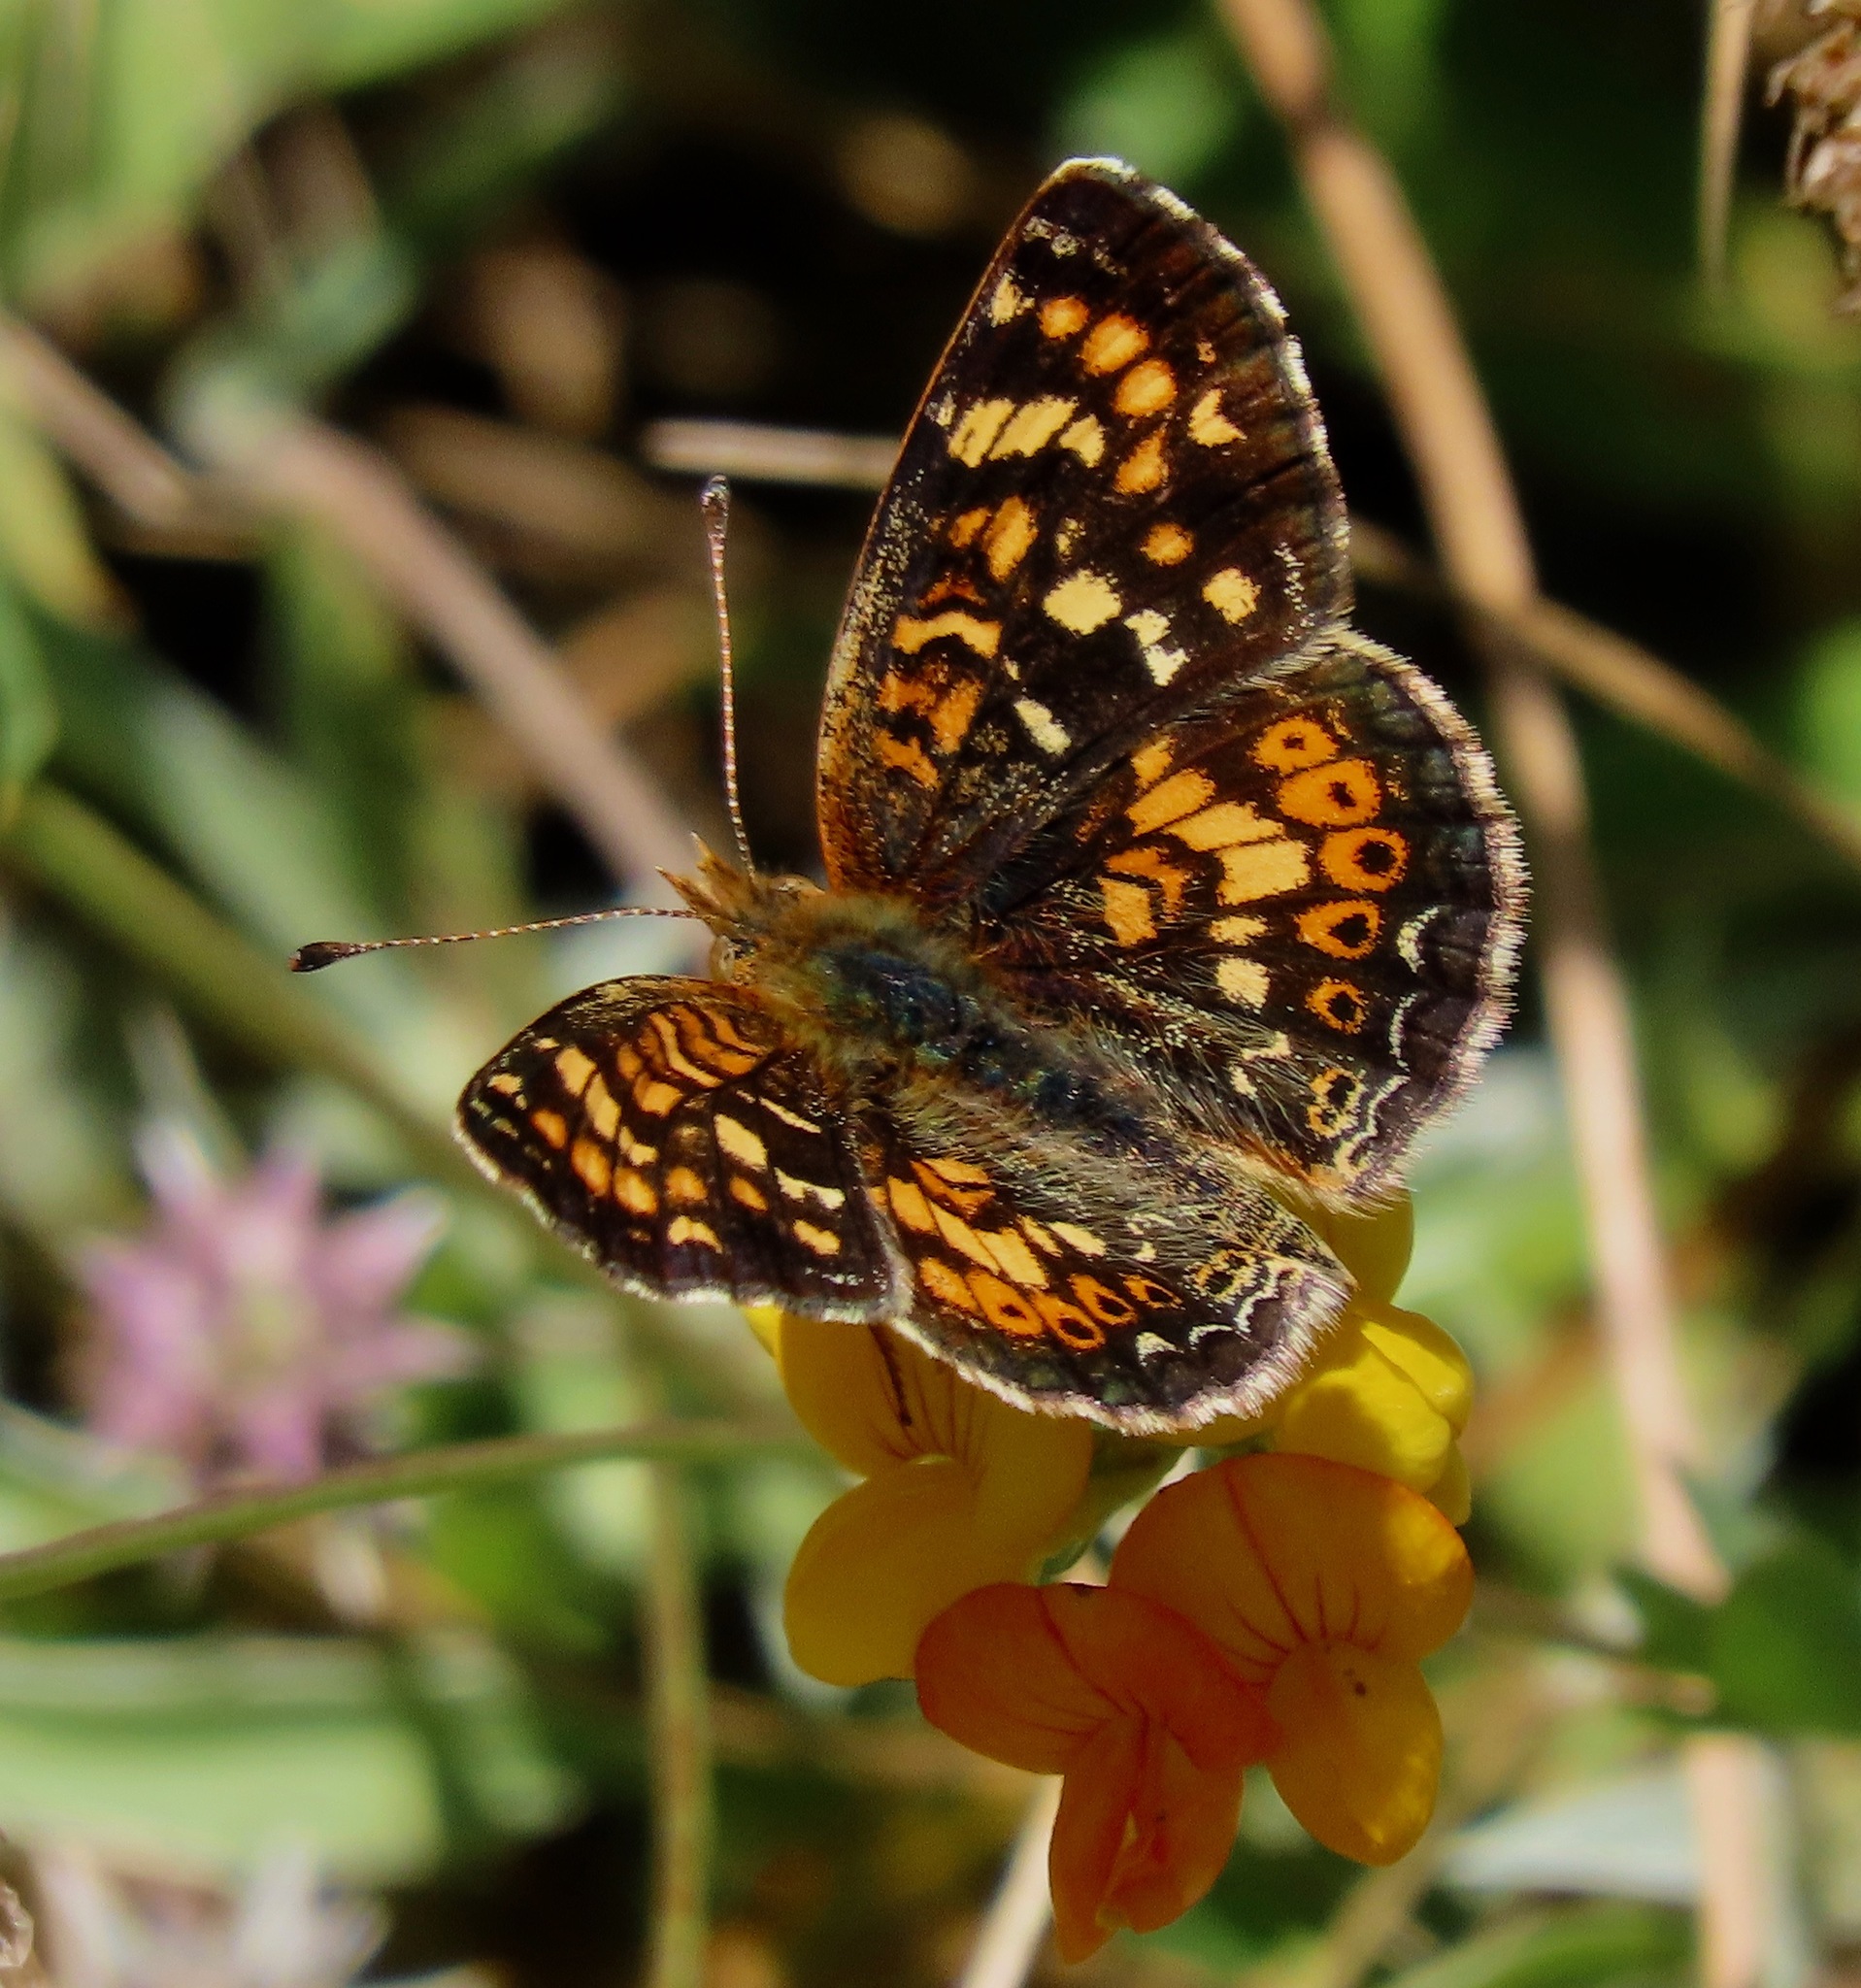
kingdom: Animalia
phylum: Arthropoda
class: Insecta
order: Lepidoptera
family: Nymphalidae
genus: Phyciodes
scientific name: Phyciodes tharos
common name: Pearl crescent
